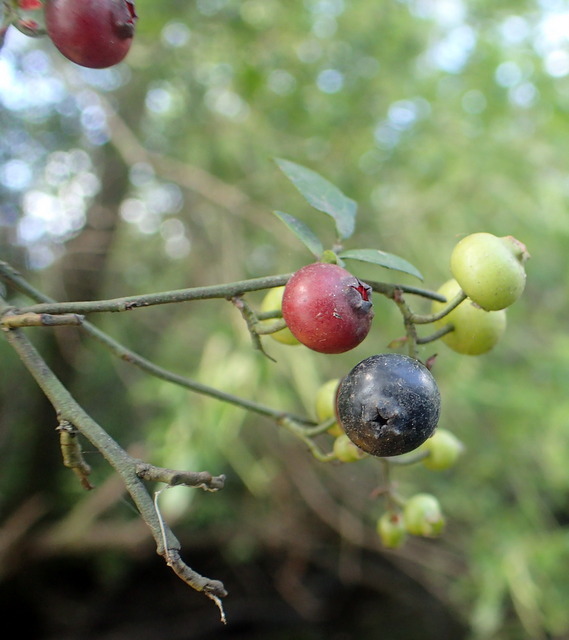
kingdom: Plantae
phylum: Tracheophyta
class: Magnoliopsida
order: Ericales
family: Ericaceae
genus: Vaccinium
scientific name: Vaccinium corymbosum
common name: Blueberry
